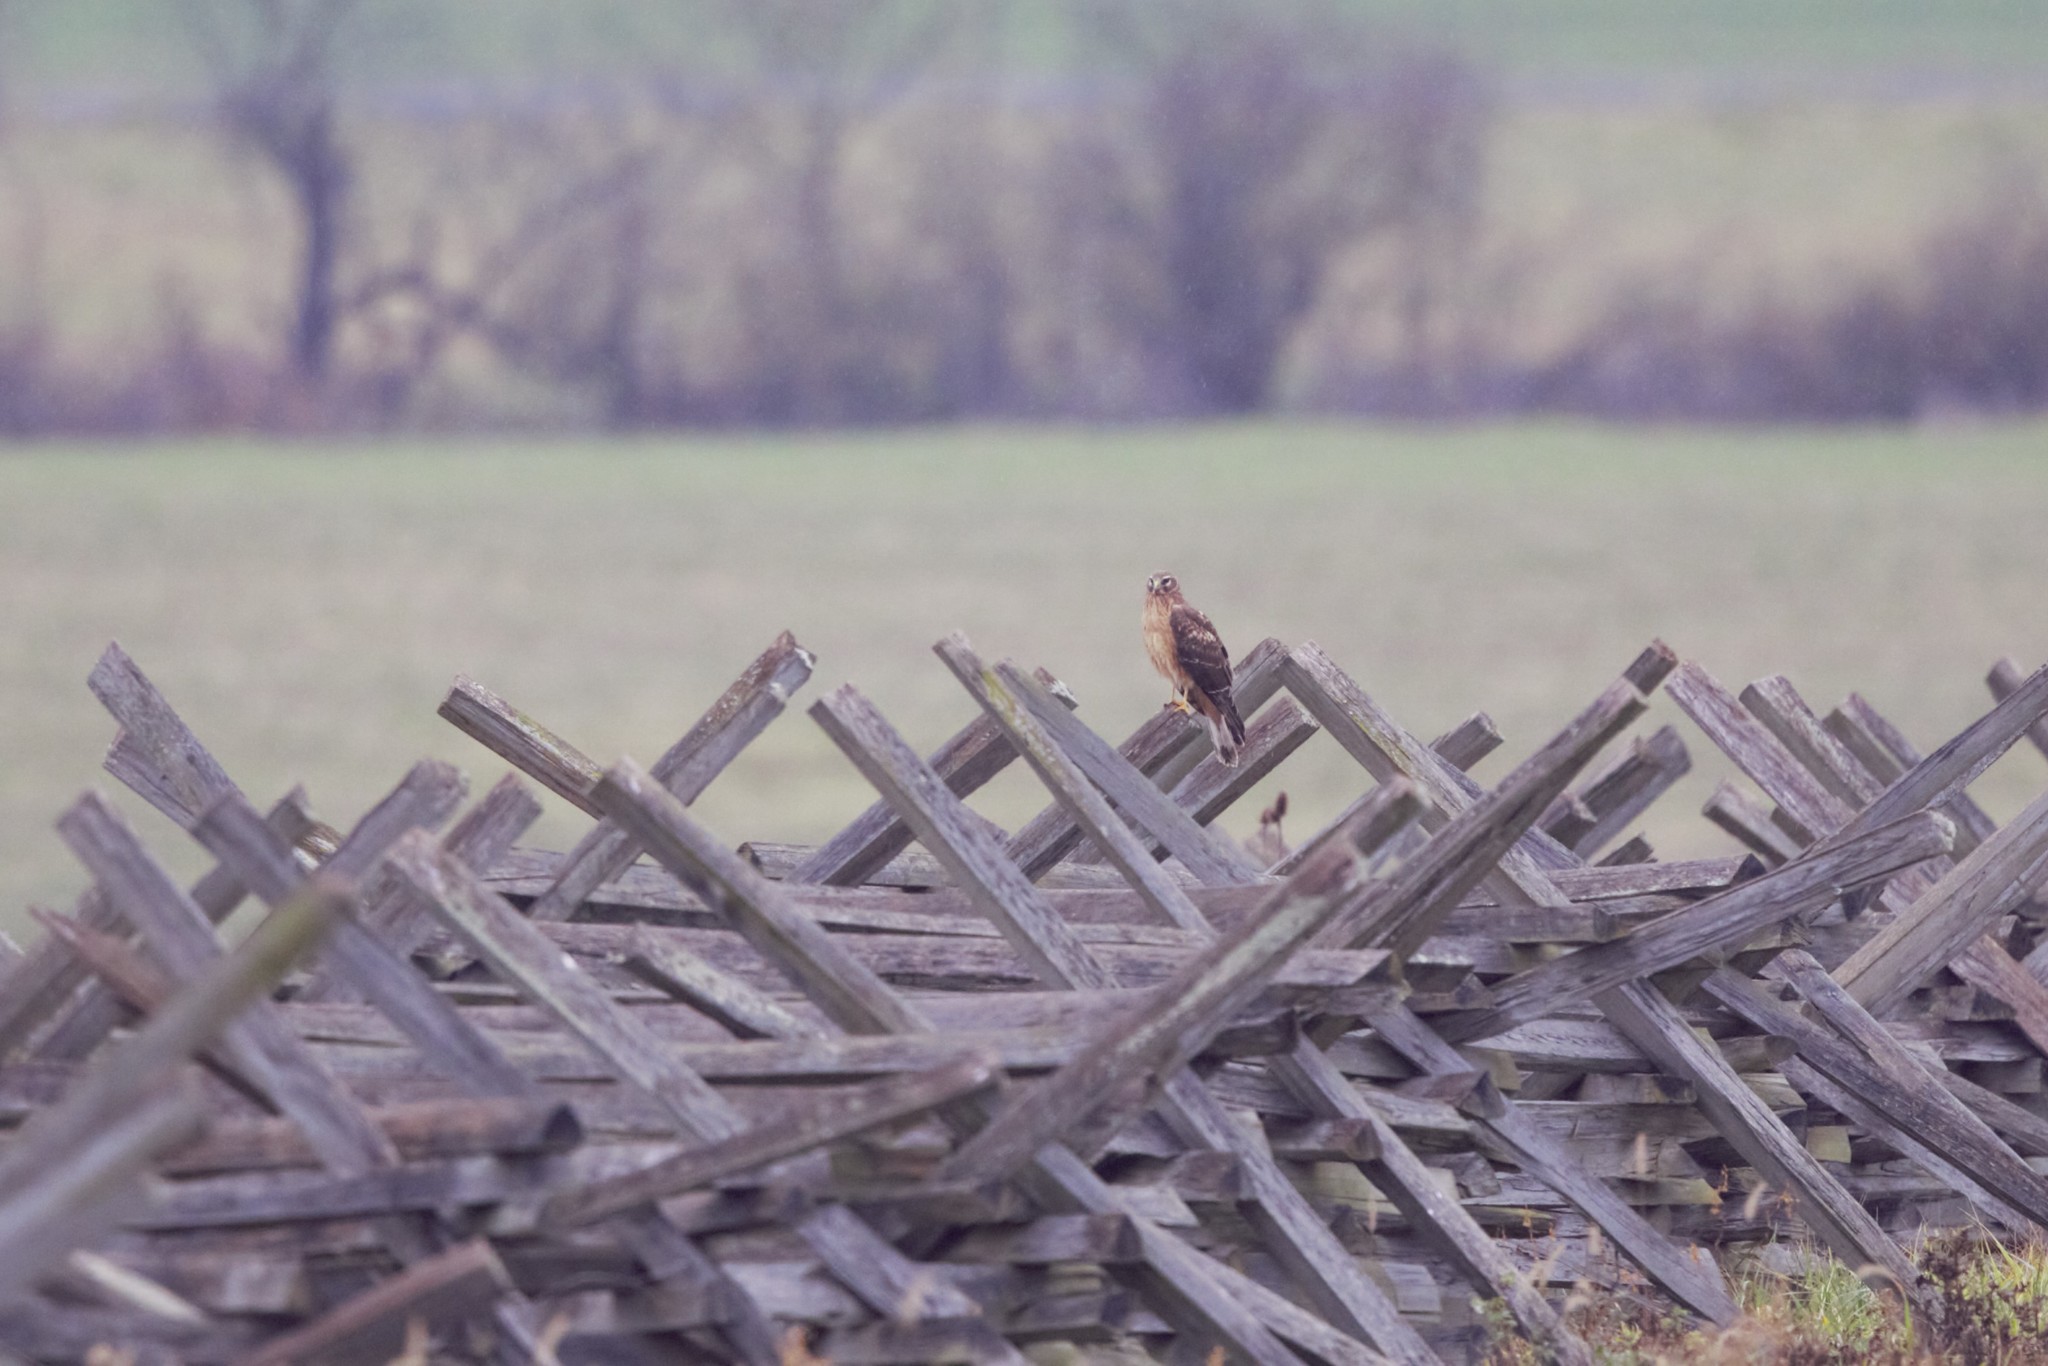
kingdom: Animalia
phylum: Chordata
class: Aves
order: Accipitriformes
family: Accipitridae
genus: Circus
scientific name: Circus cyaneus
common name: Hen harrier
